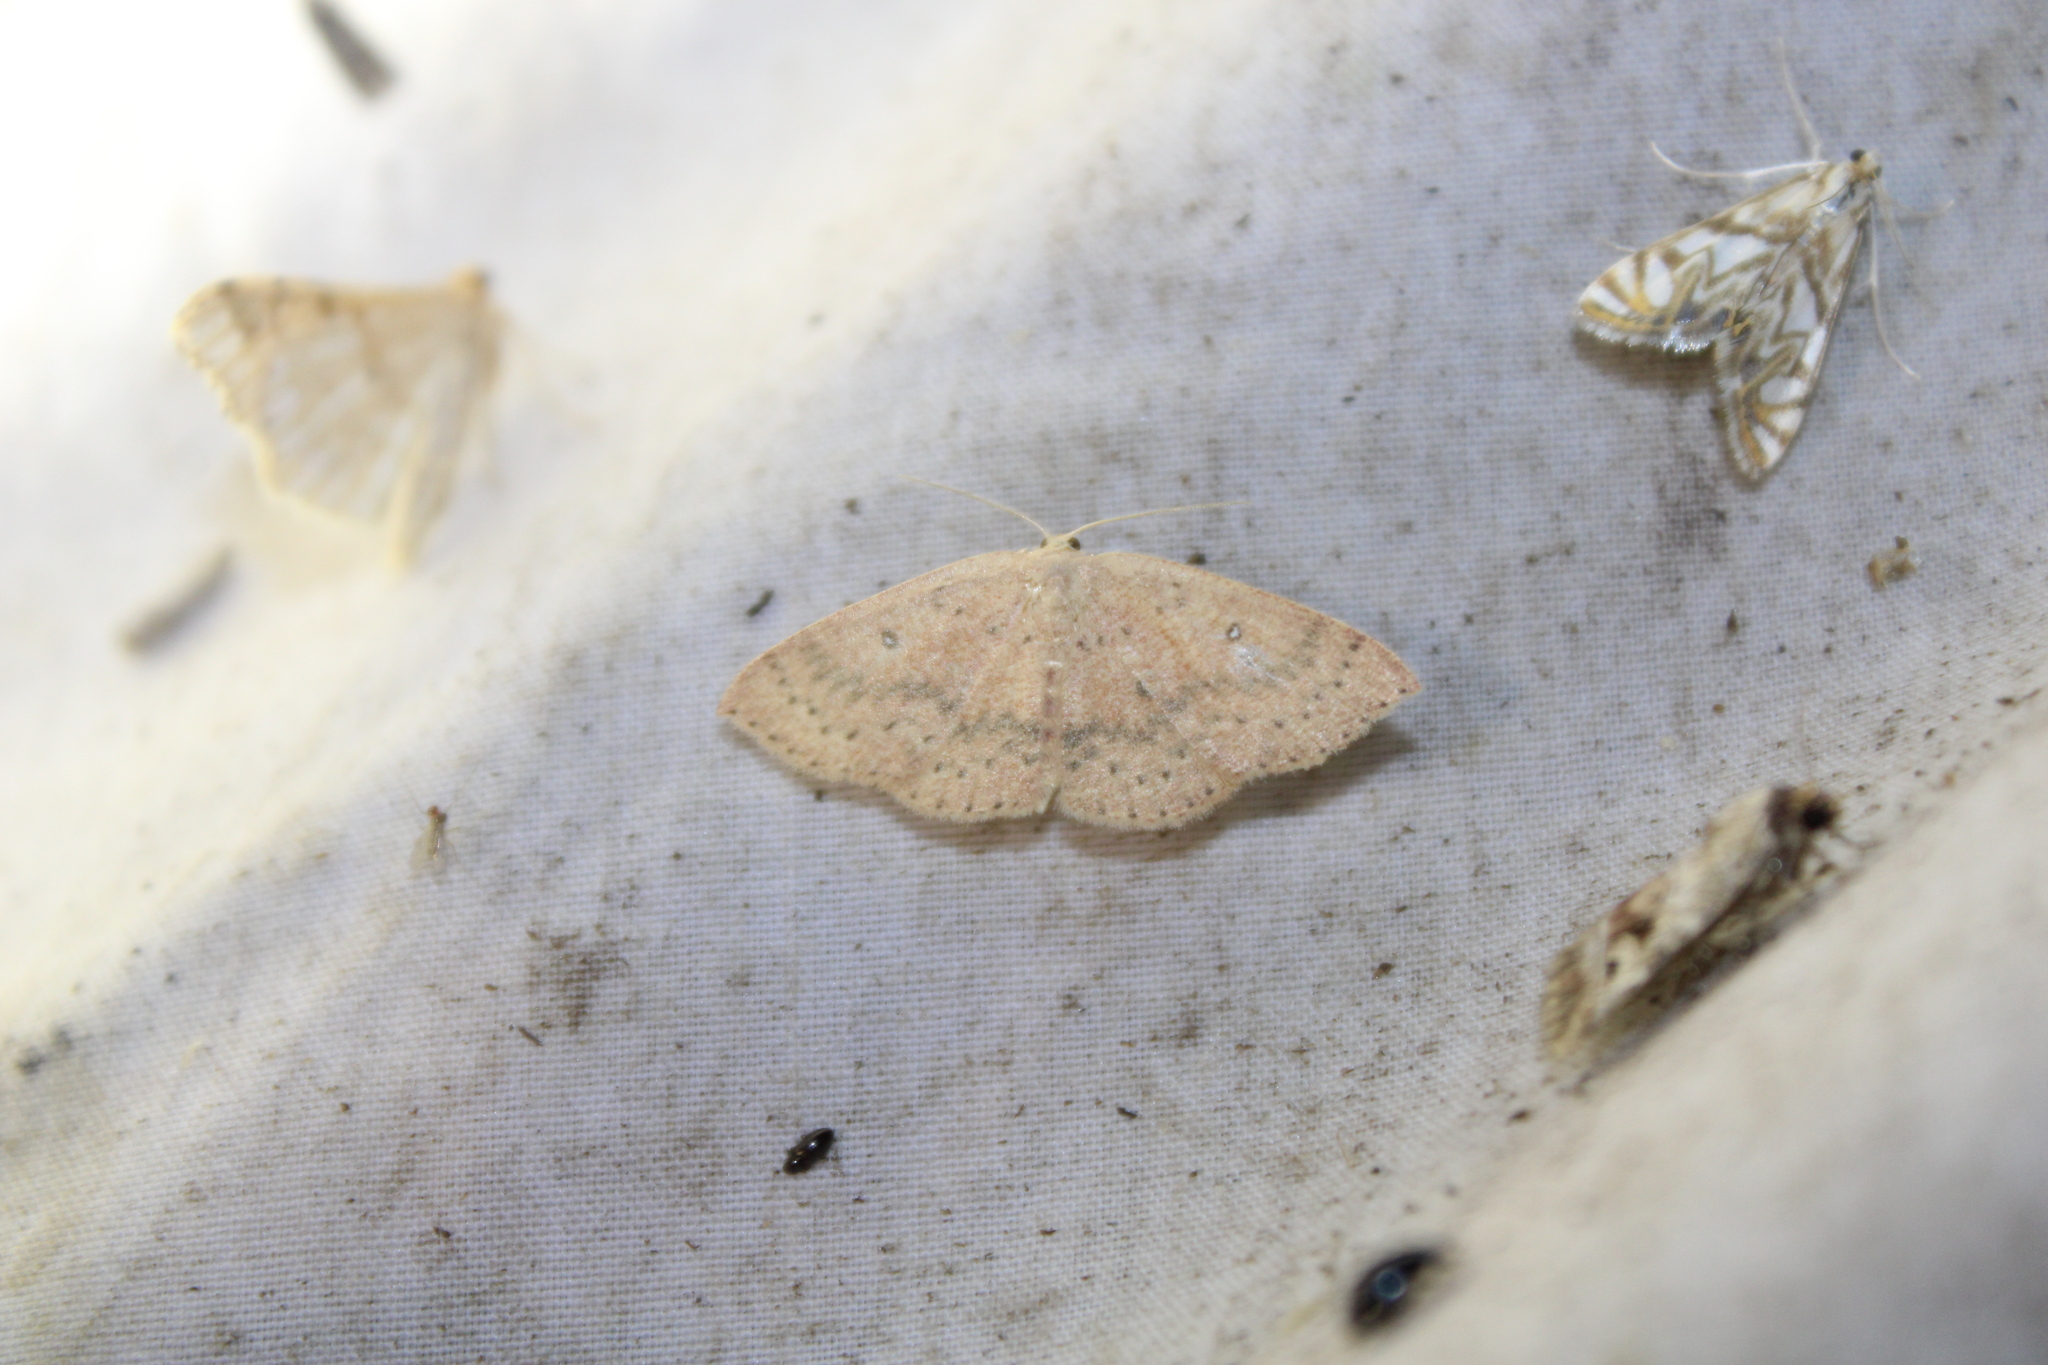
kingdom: Animalia
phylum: Arthropoda
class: Insecta
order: Lepidoptera
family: Geometridae
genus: Cyclophora
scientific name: Cyclophora packardi
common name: Packard's wave
